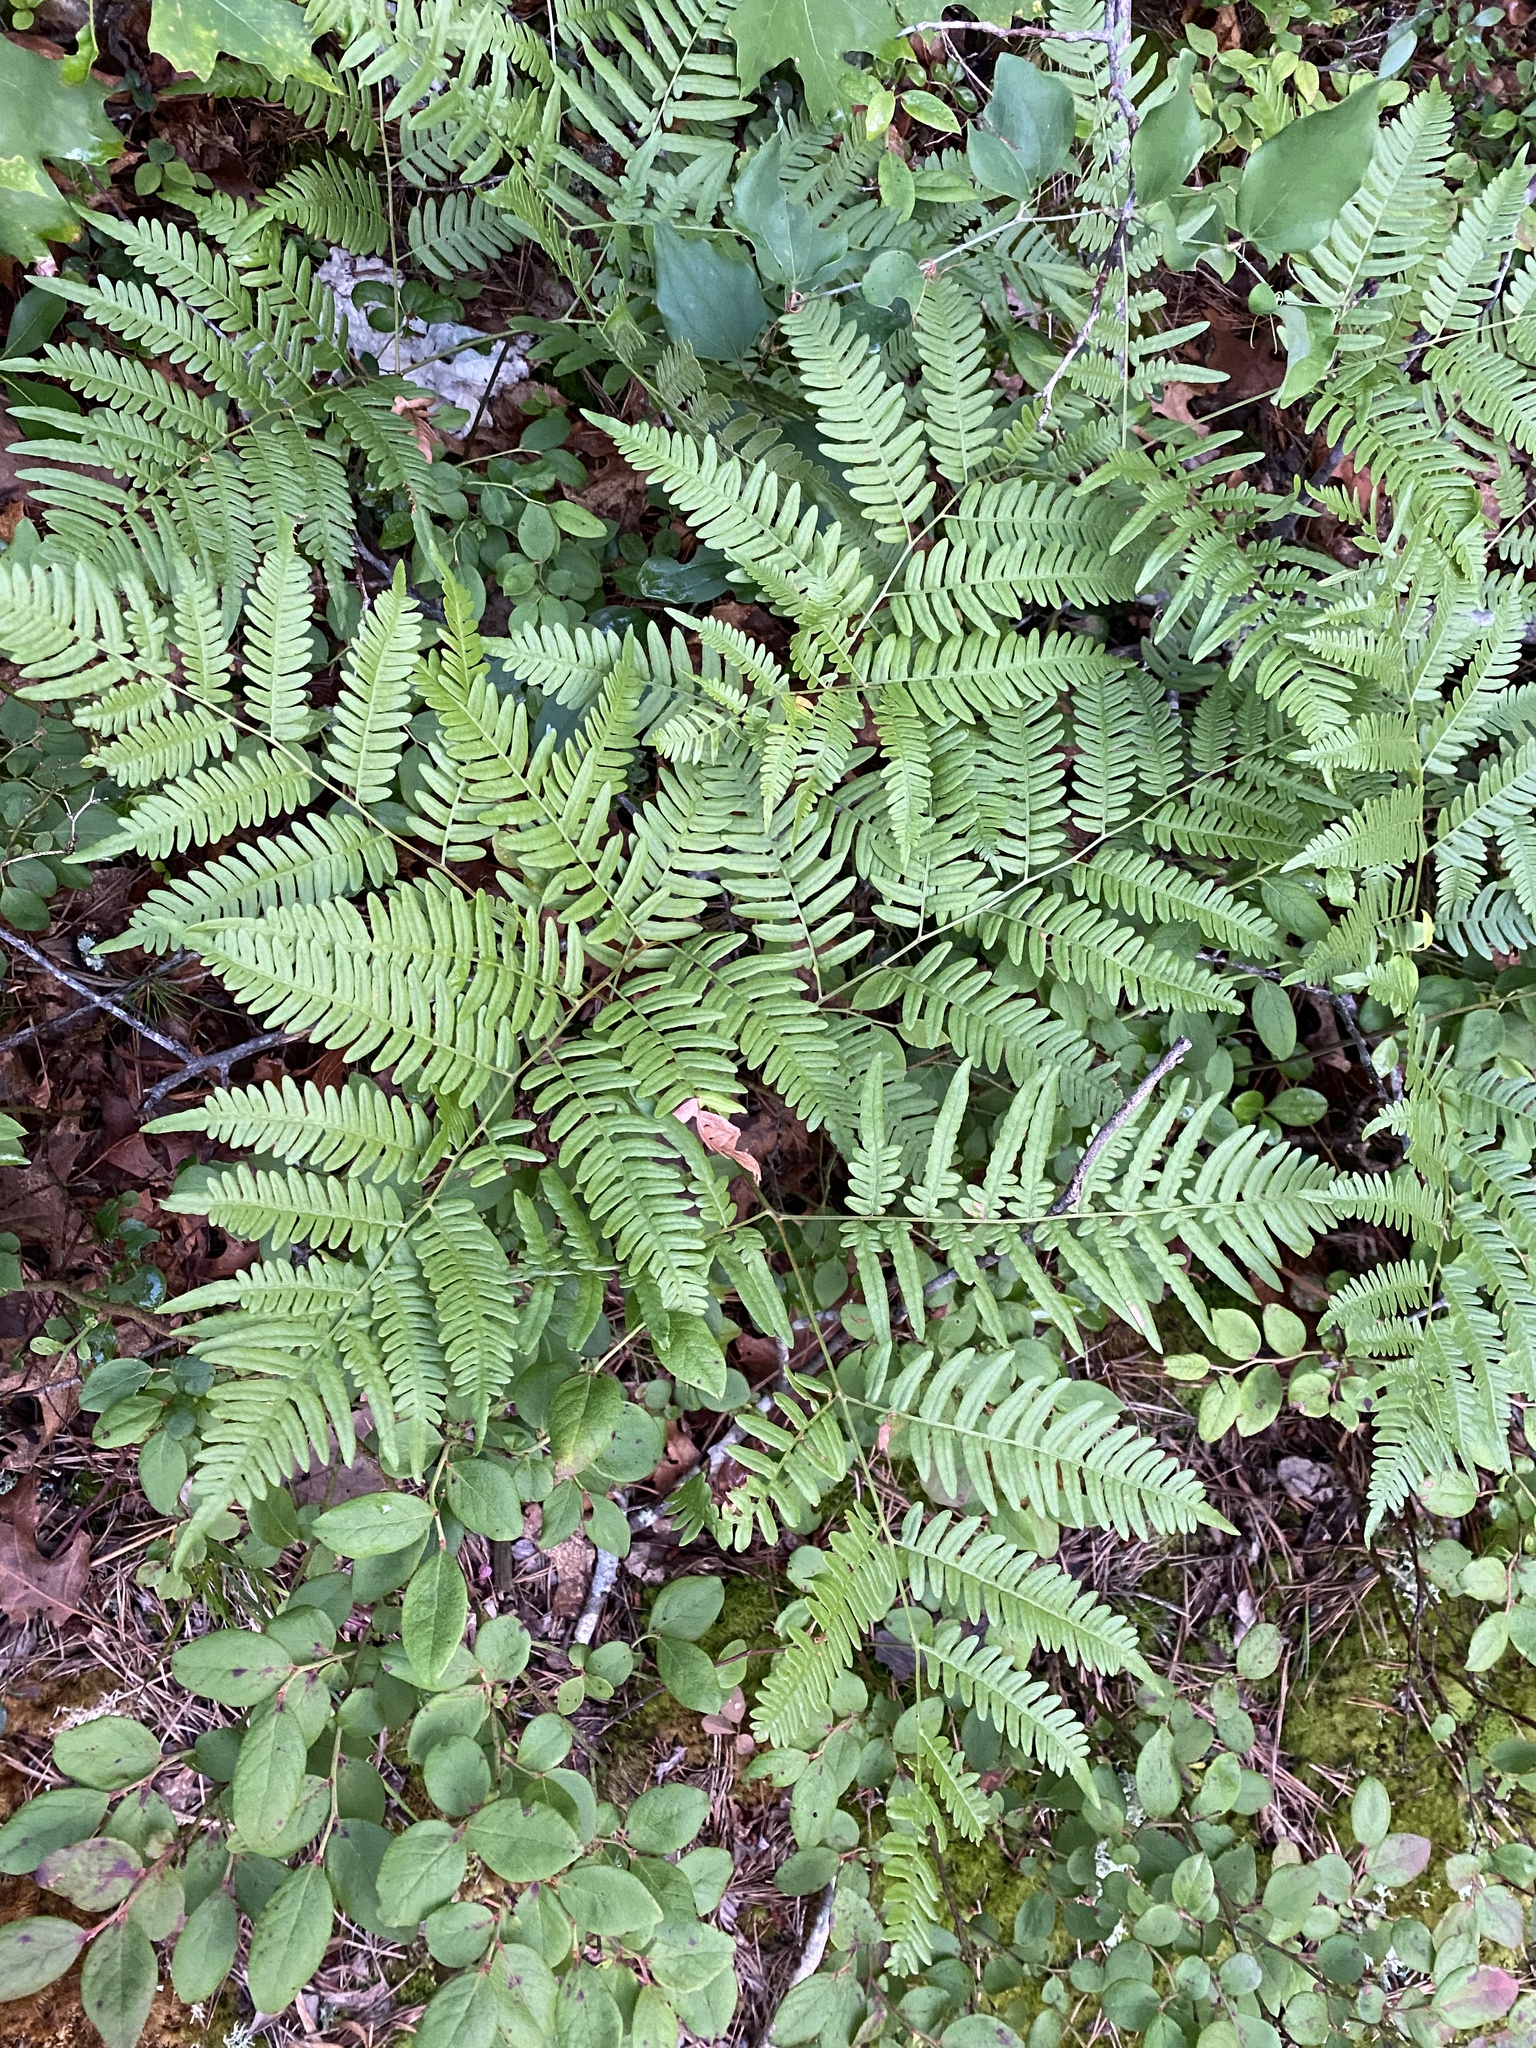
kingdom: Plantae
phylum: Tracheophyta
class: Polypodiopsida
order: Polypodiales
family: Dennstaedtiaceae
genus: Pteridium
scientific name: Pteridium aquilinum
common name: Bracken
